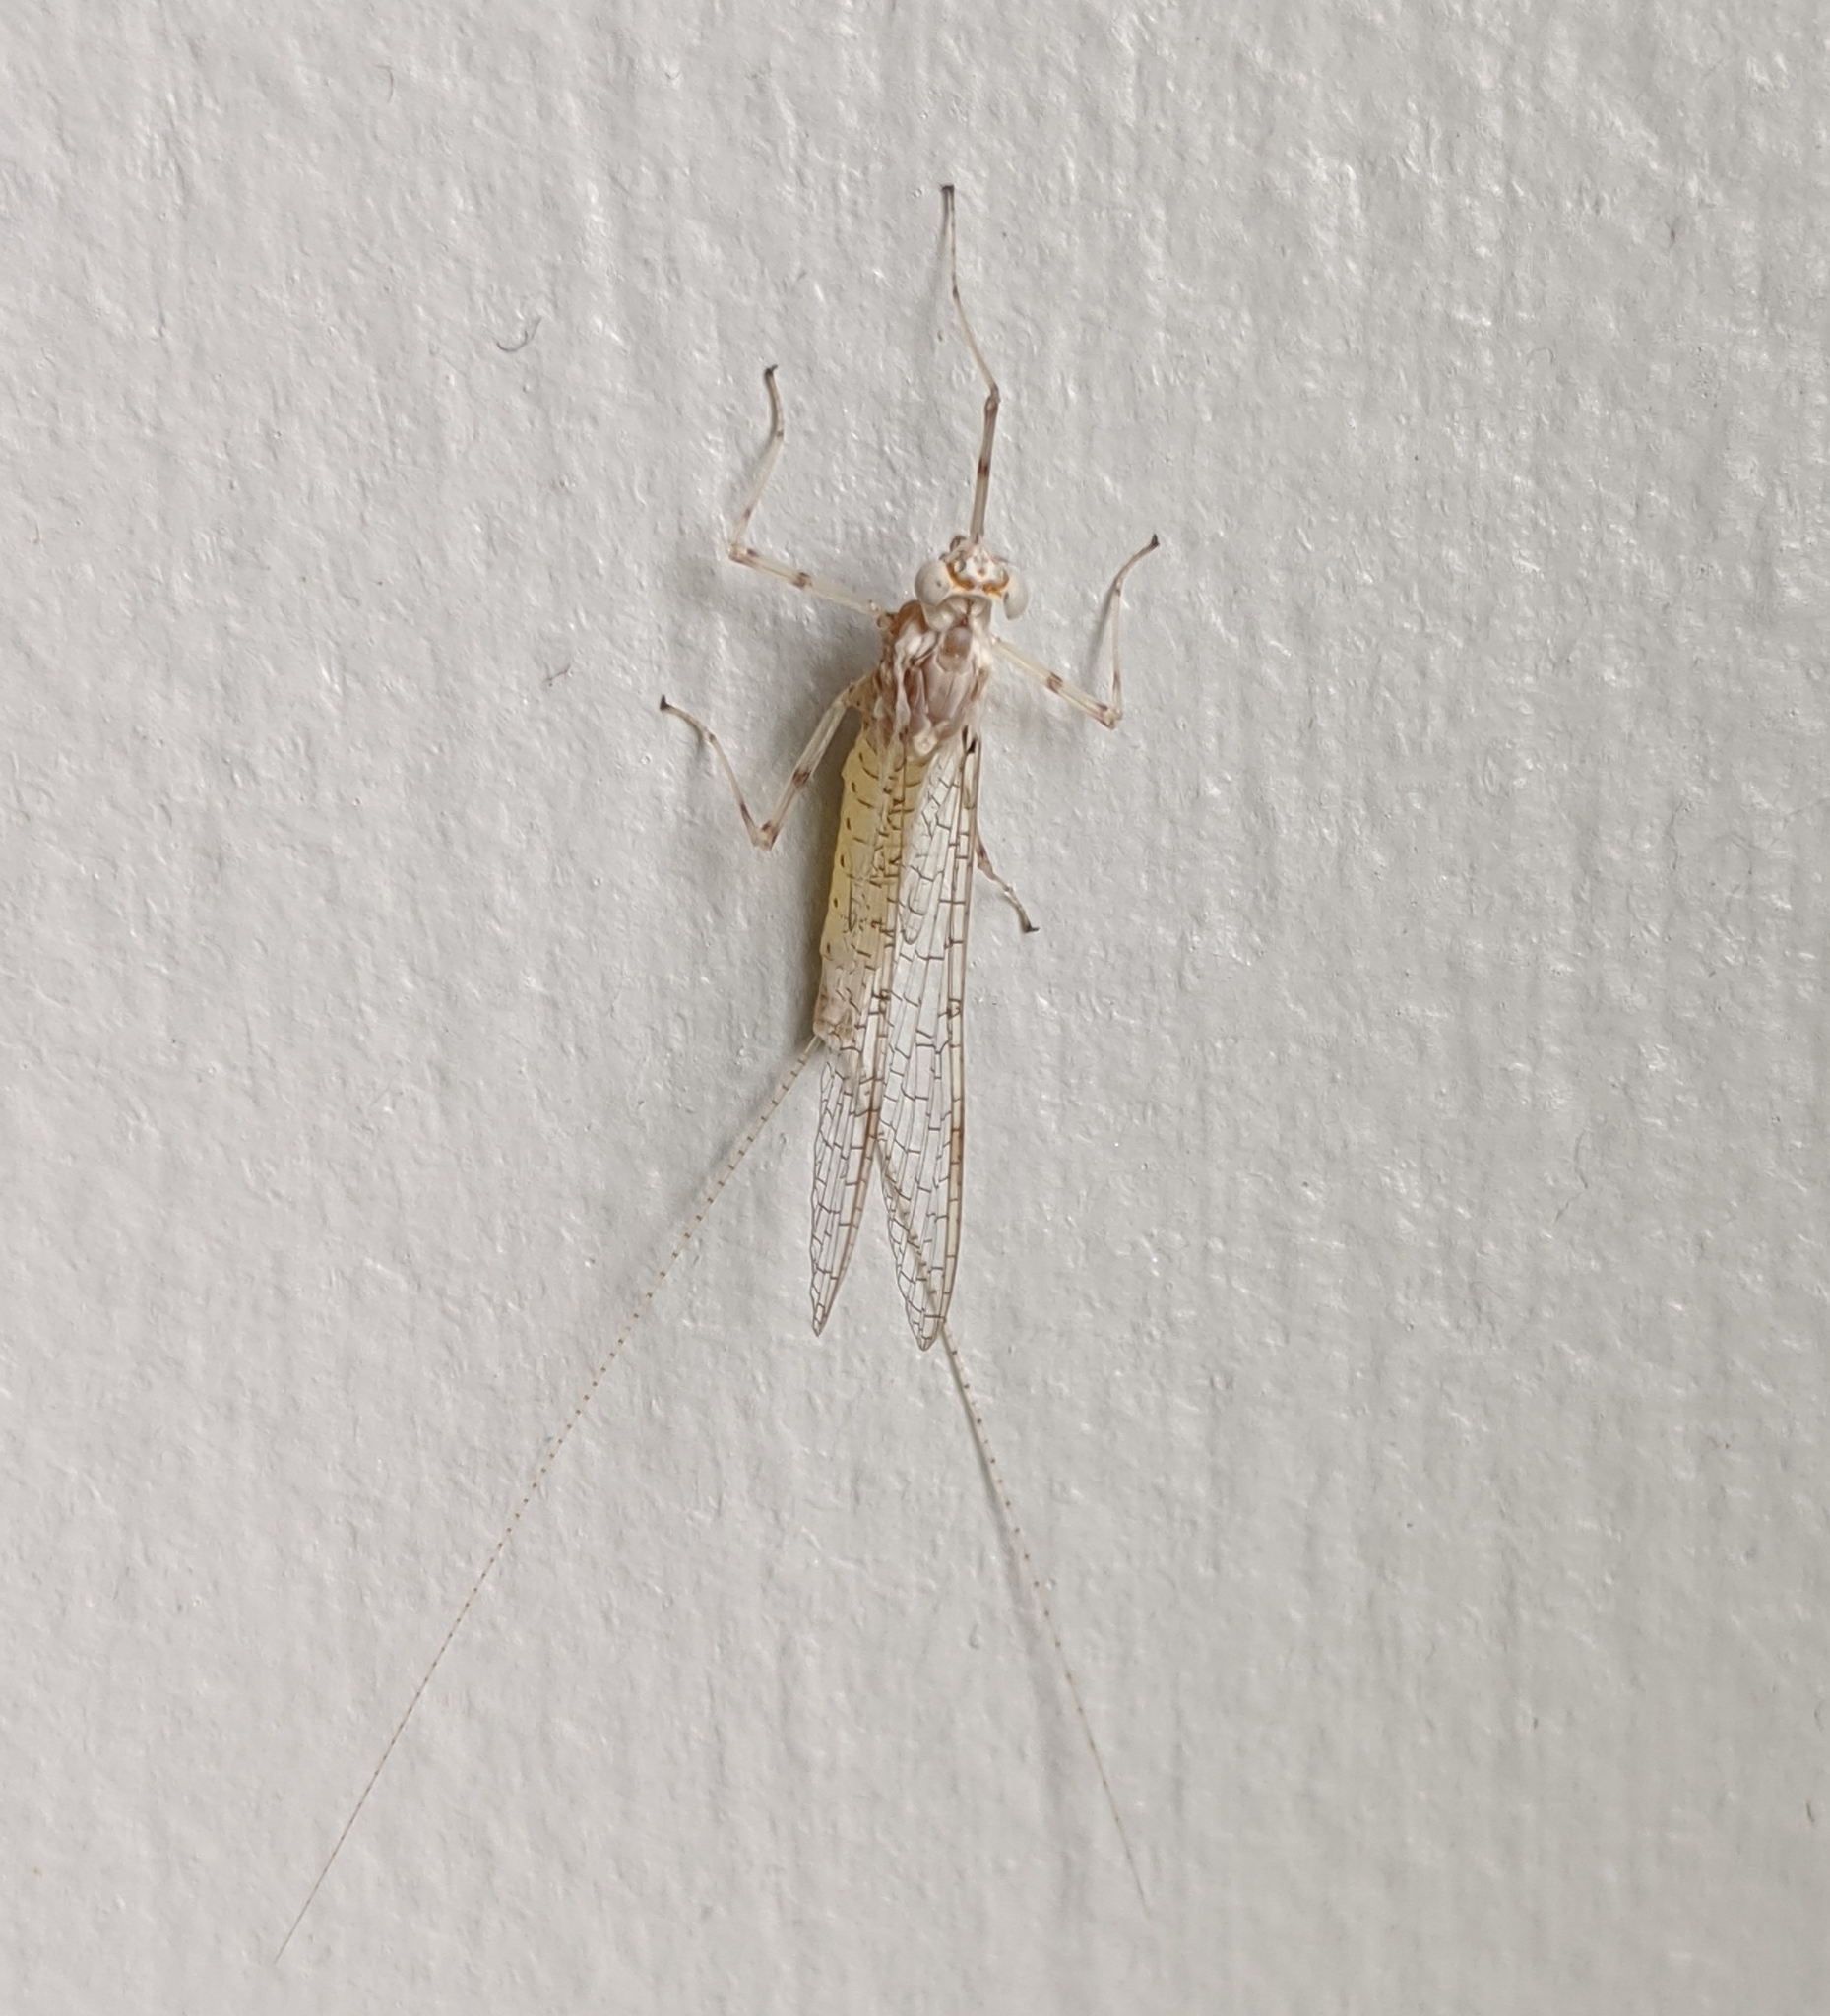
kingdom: Animalia
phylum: Arthropoda
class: Insecta
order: Ephemeroptera
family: Heptageniidae
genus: Maccaffertium
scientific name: Maccaffertium mediopunctatum
